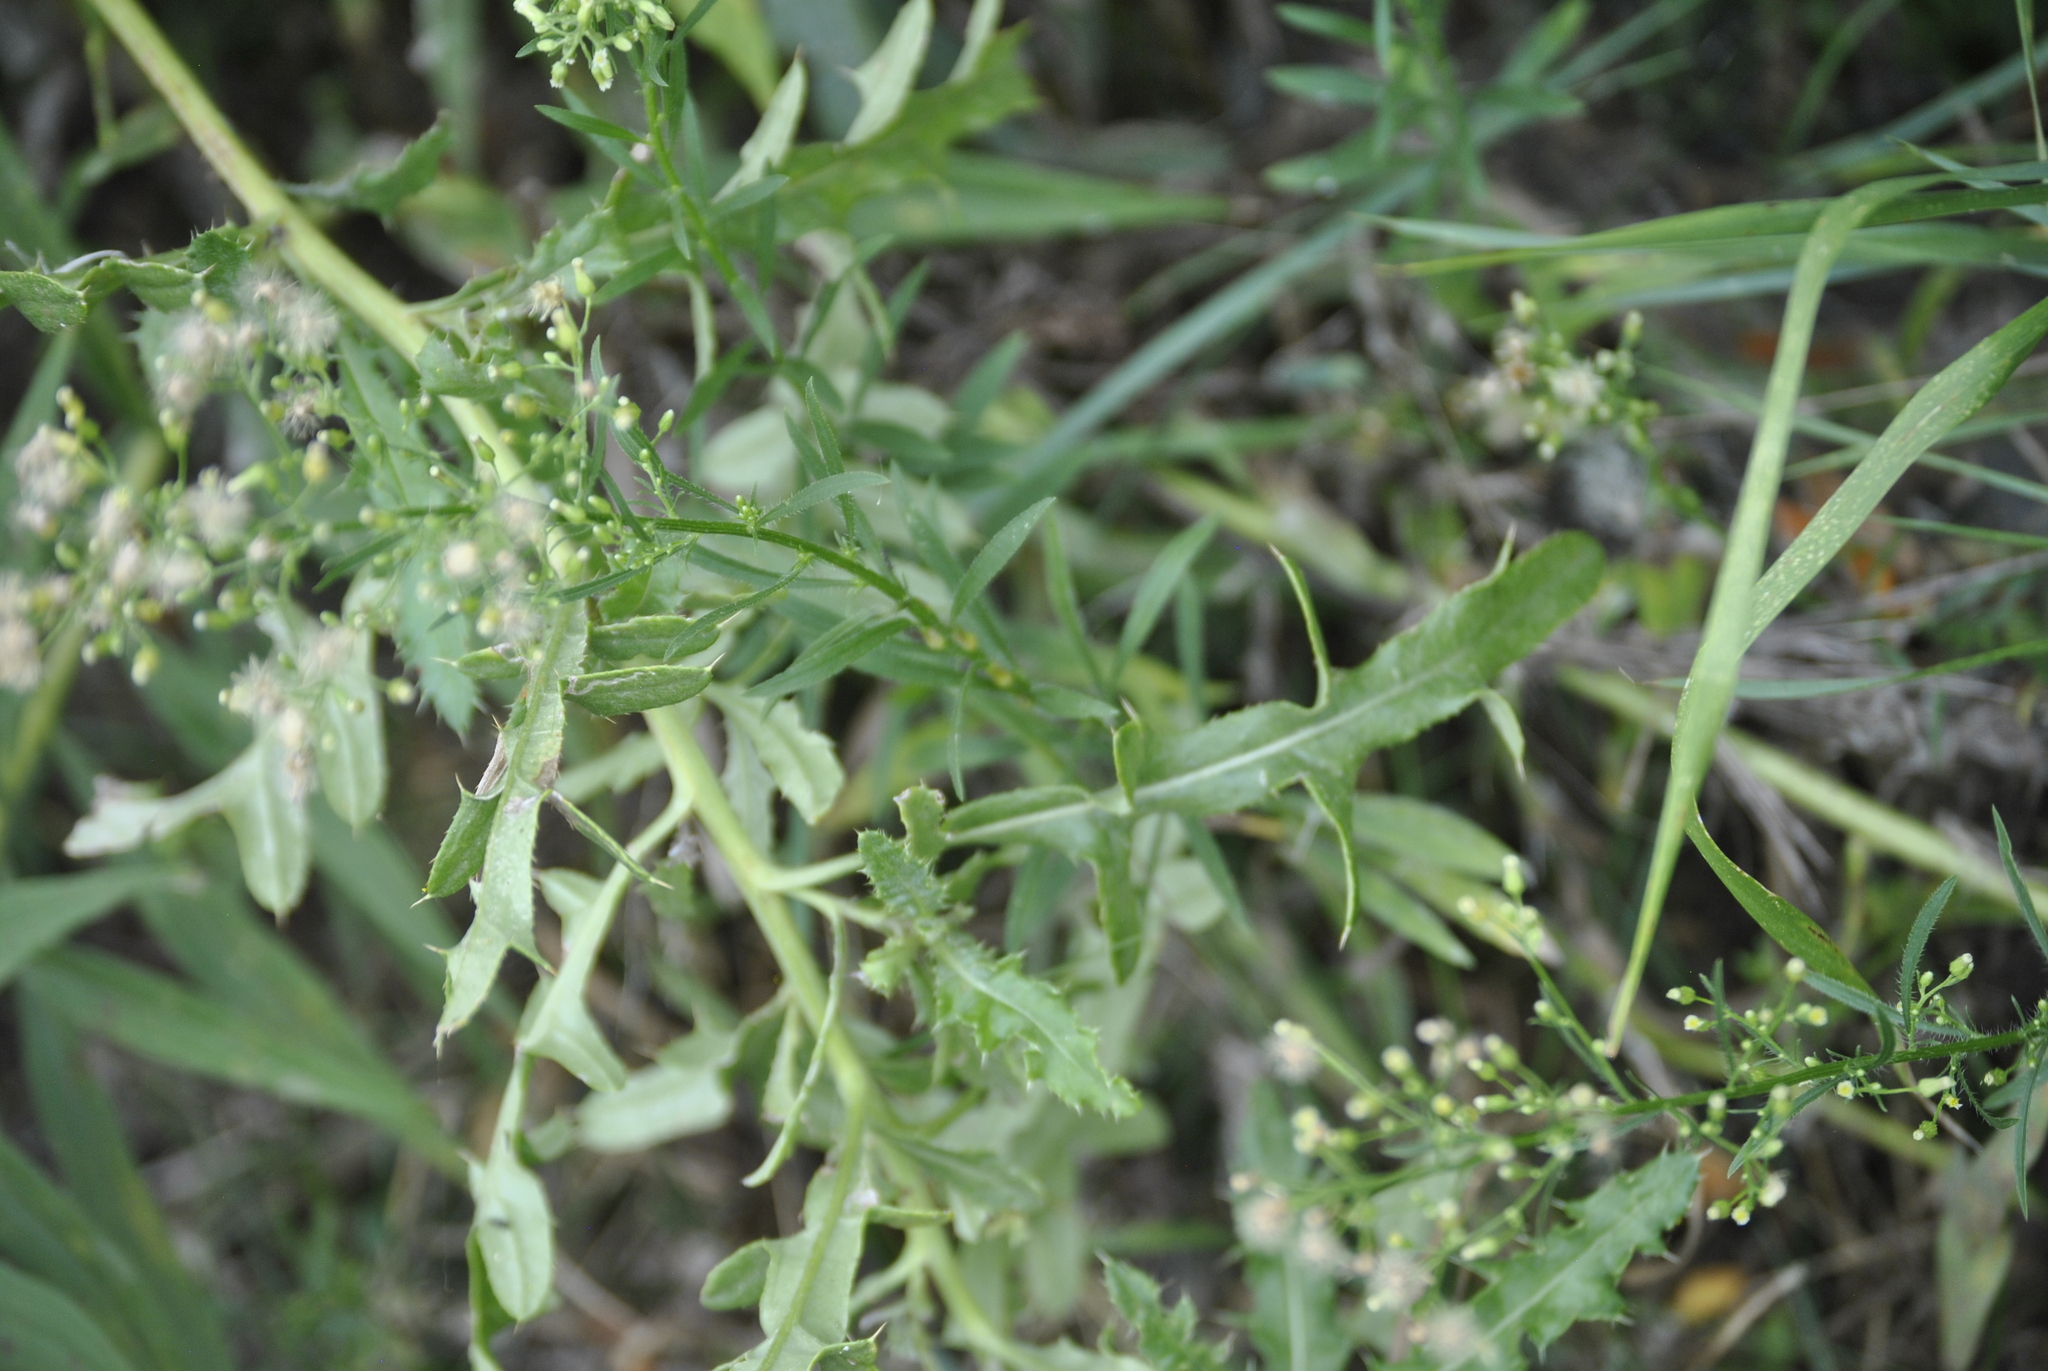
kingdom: Plantae
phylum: Tracheophyta
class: Magnoliopsida
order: Asterales
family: Asteraceae
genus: Erigeron
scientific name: Erigeron canadensis
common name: Canadian fleabane
